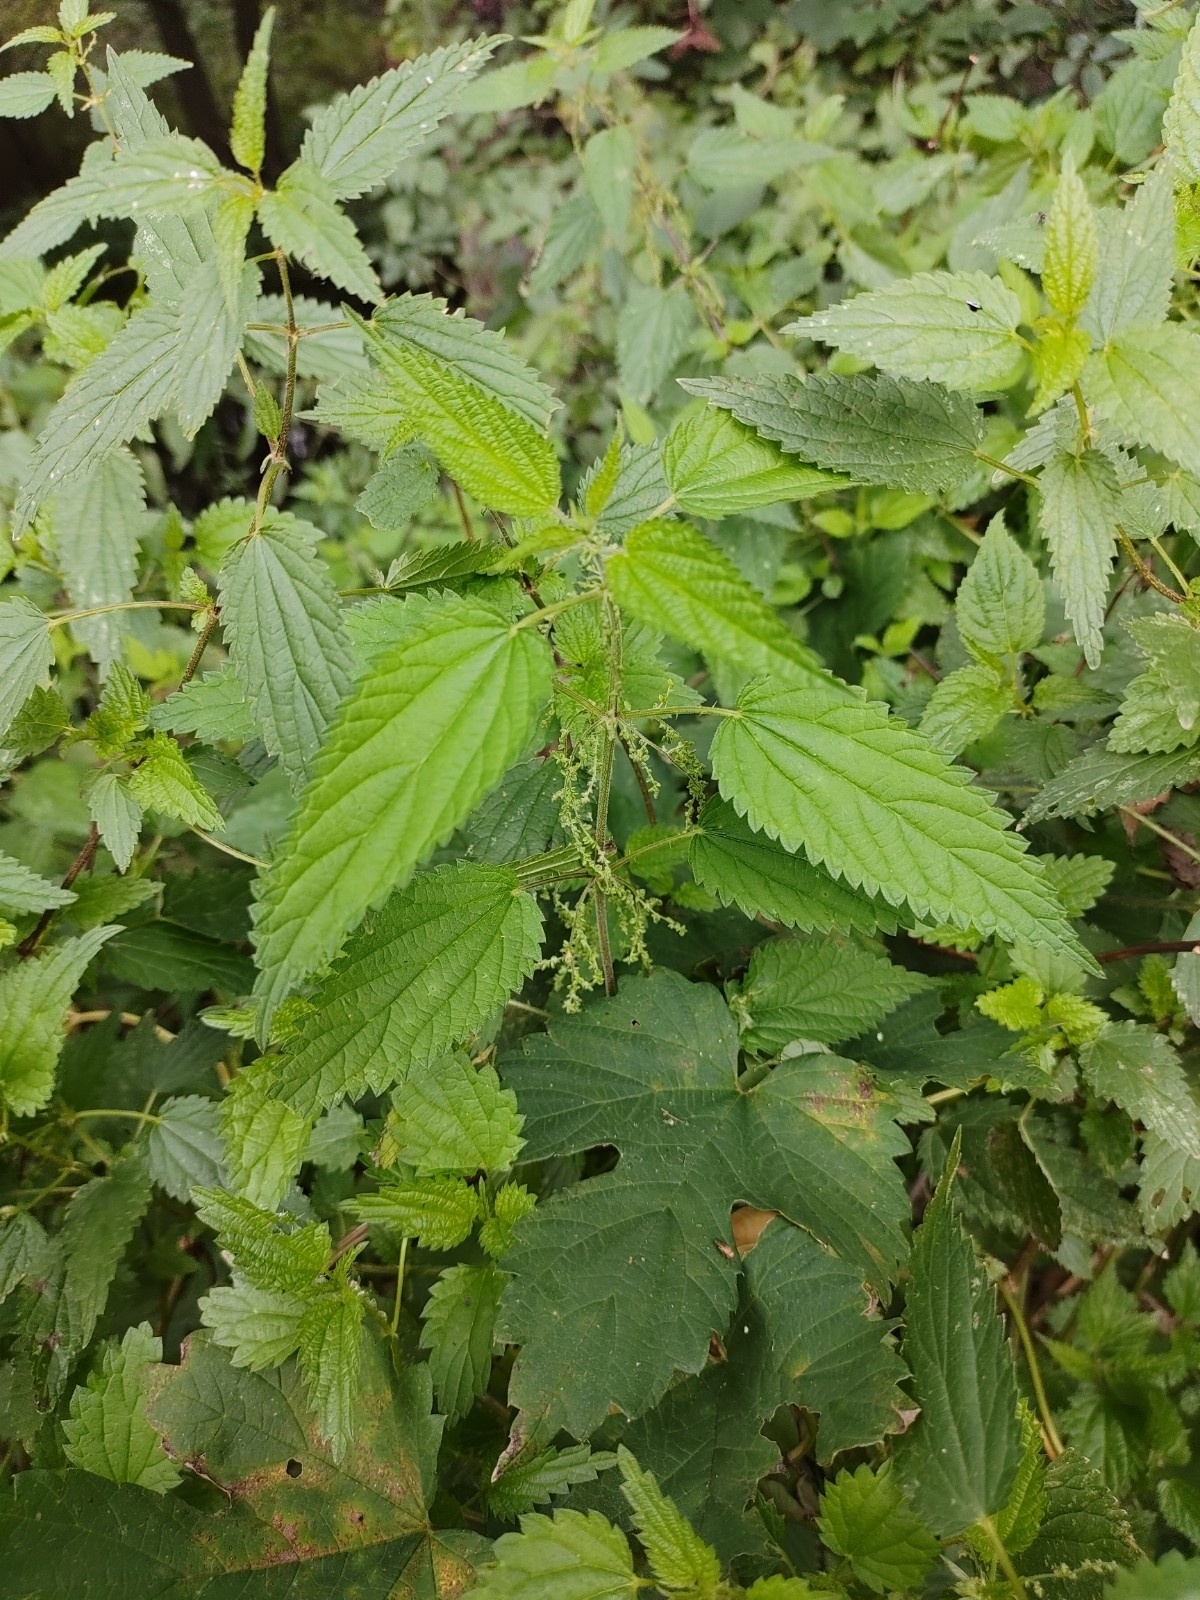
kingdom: Plantae
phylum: Tracheophyta
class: Magnoliopsida
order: Rosales
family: Urticaceae
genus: Urtica
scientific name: Urtica dioica
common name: Common nettle
